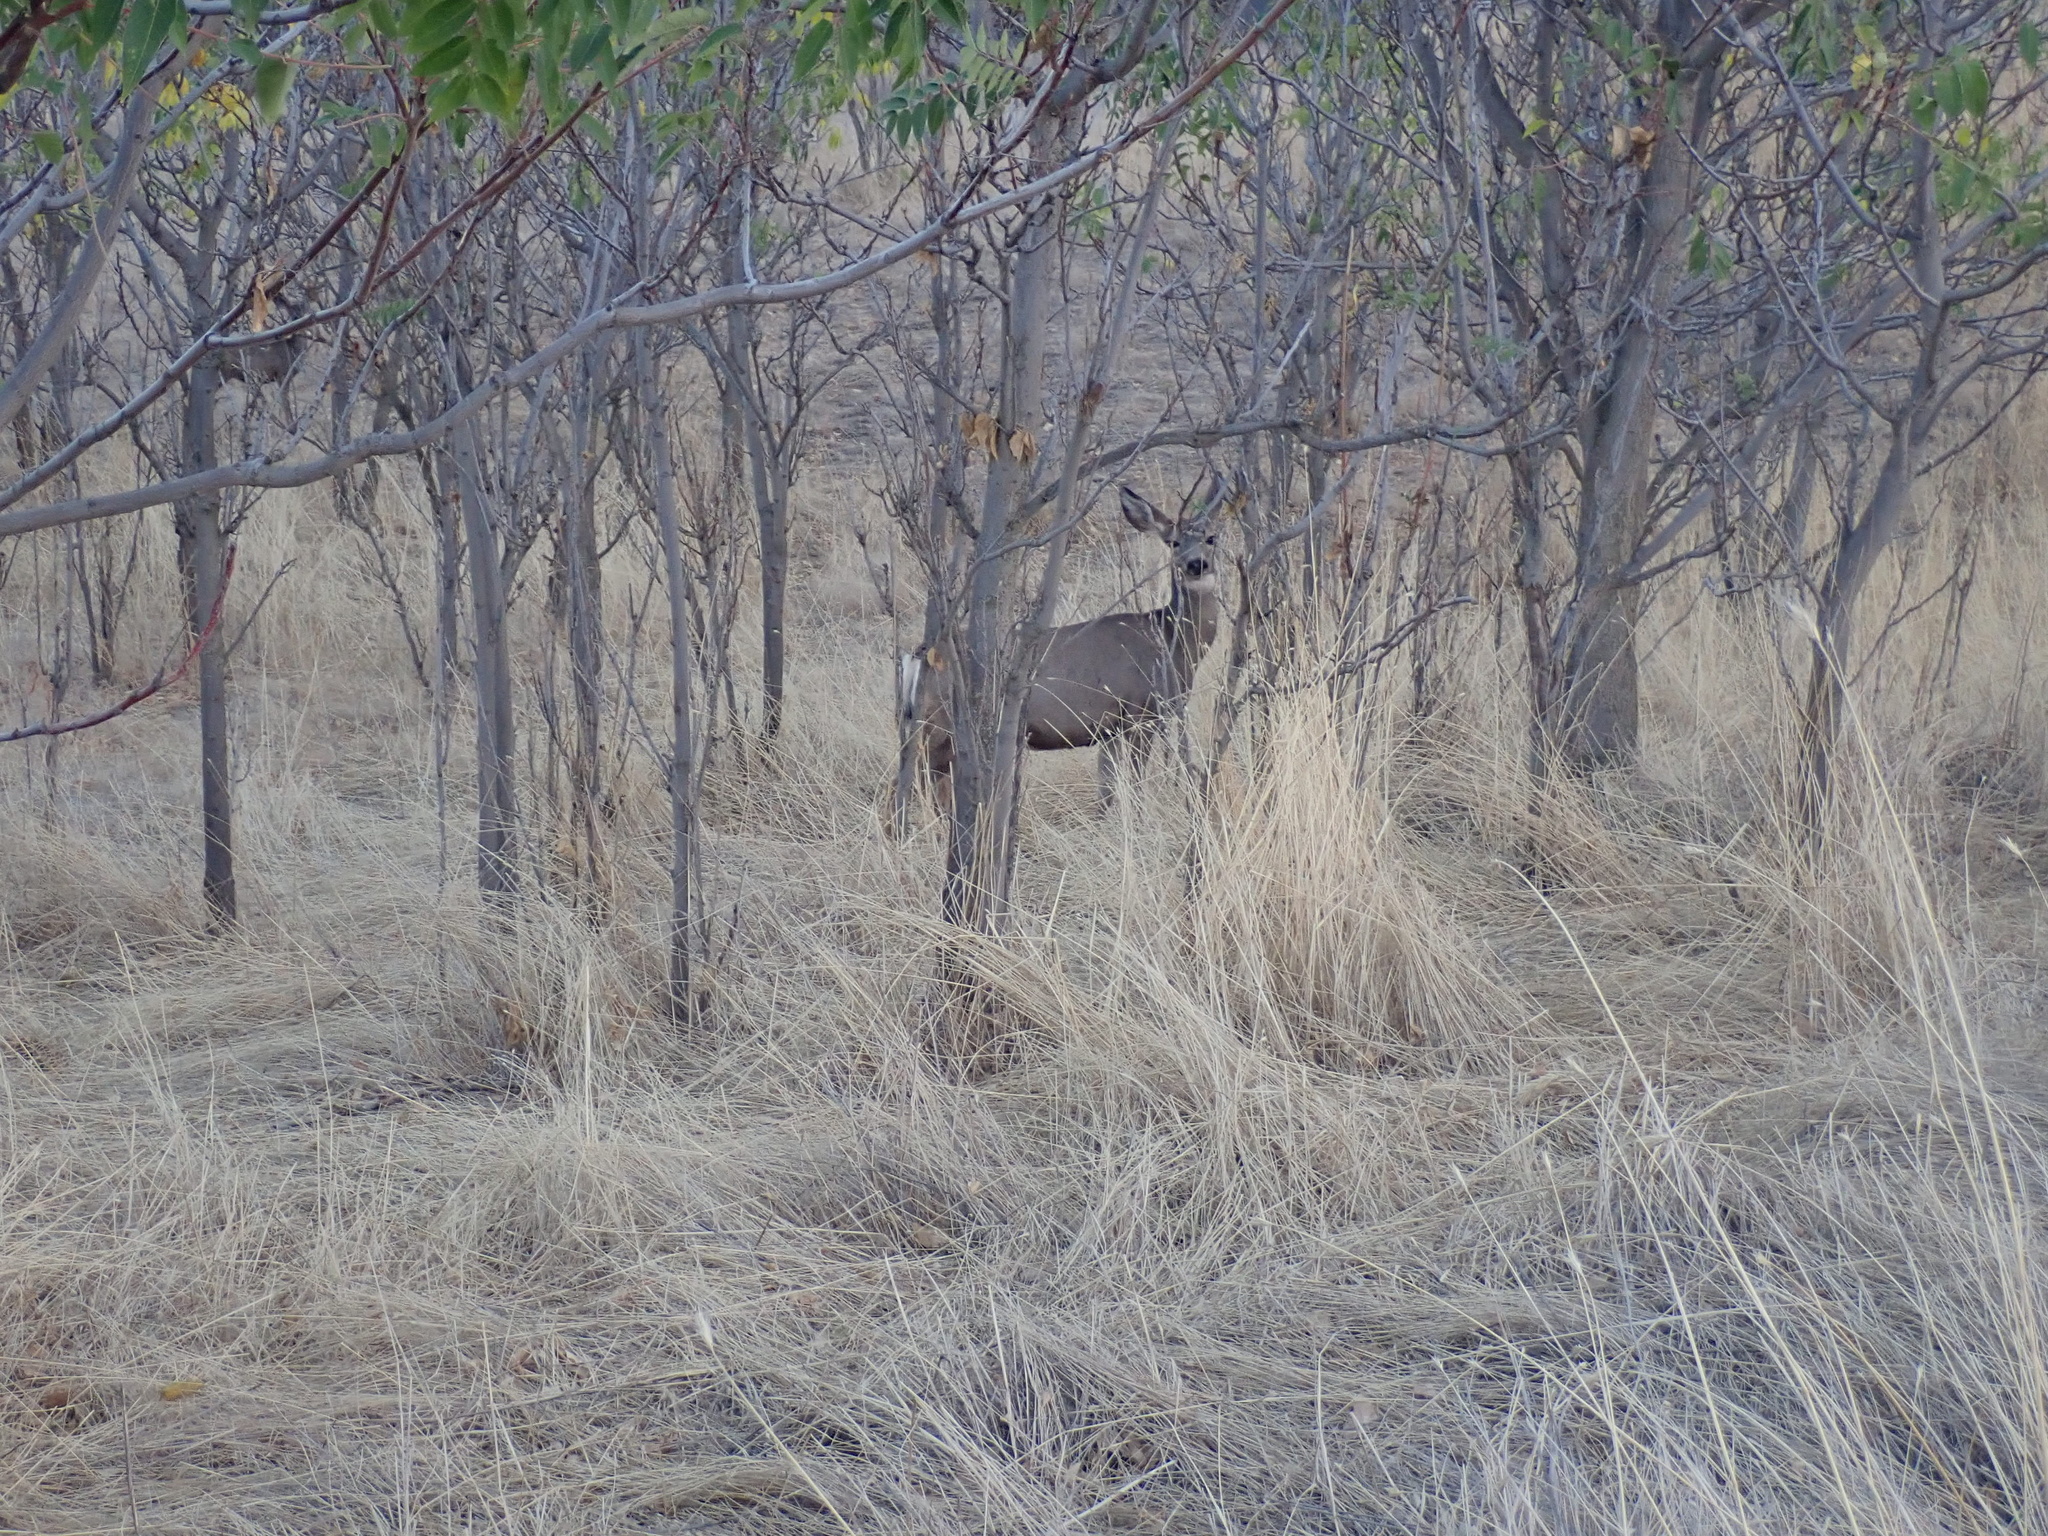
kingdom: Animalia
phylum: Chordata
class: Mammalia
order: Artiodactyla
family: Cervidae
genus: Odocoileus
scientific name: Odocoileus hemionus
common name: Mule deer
